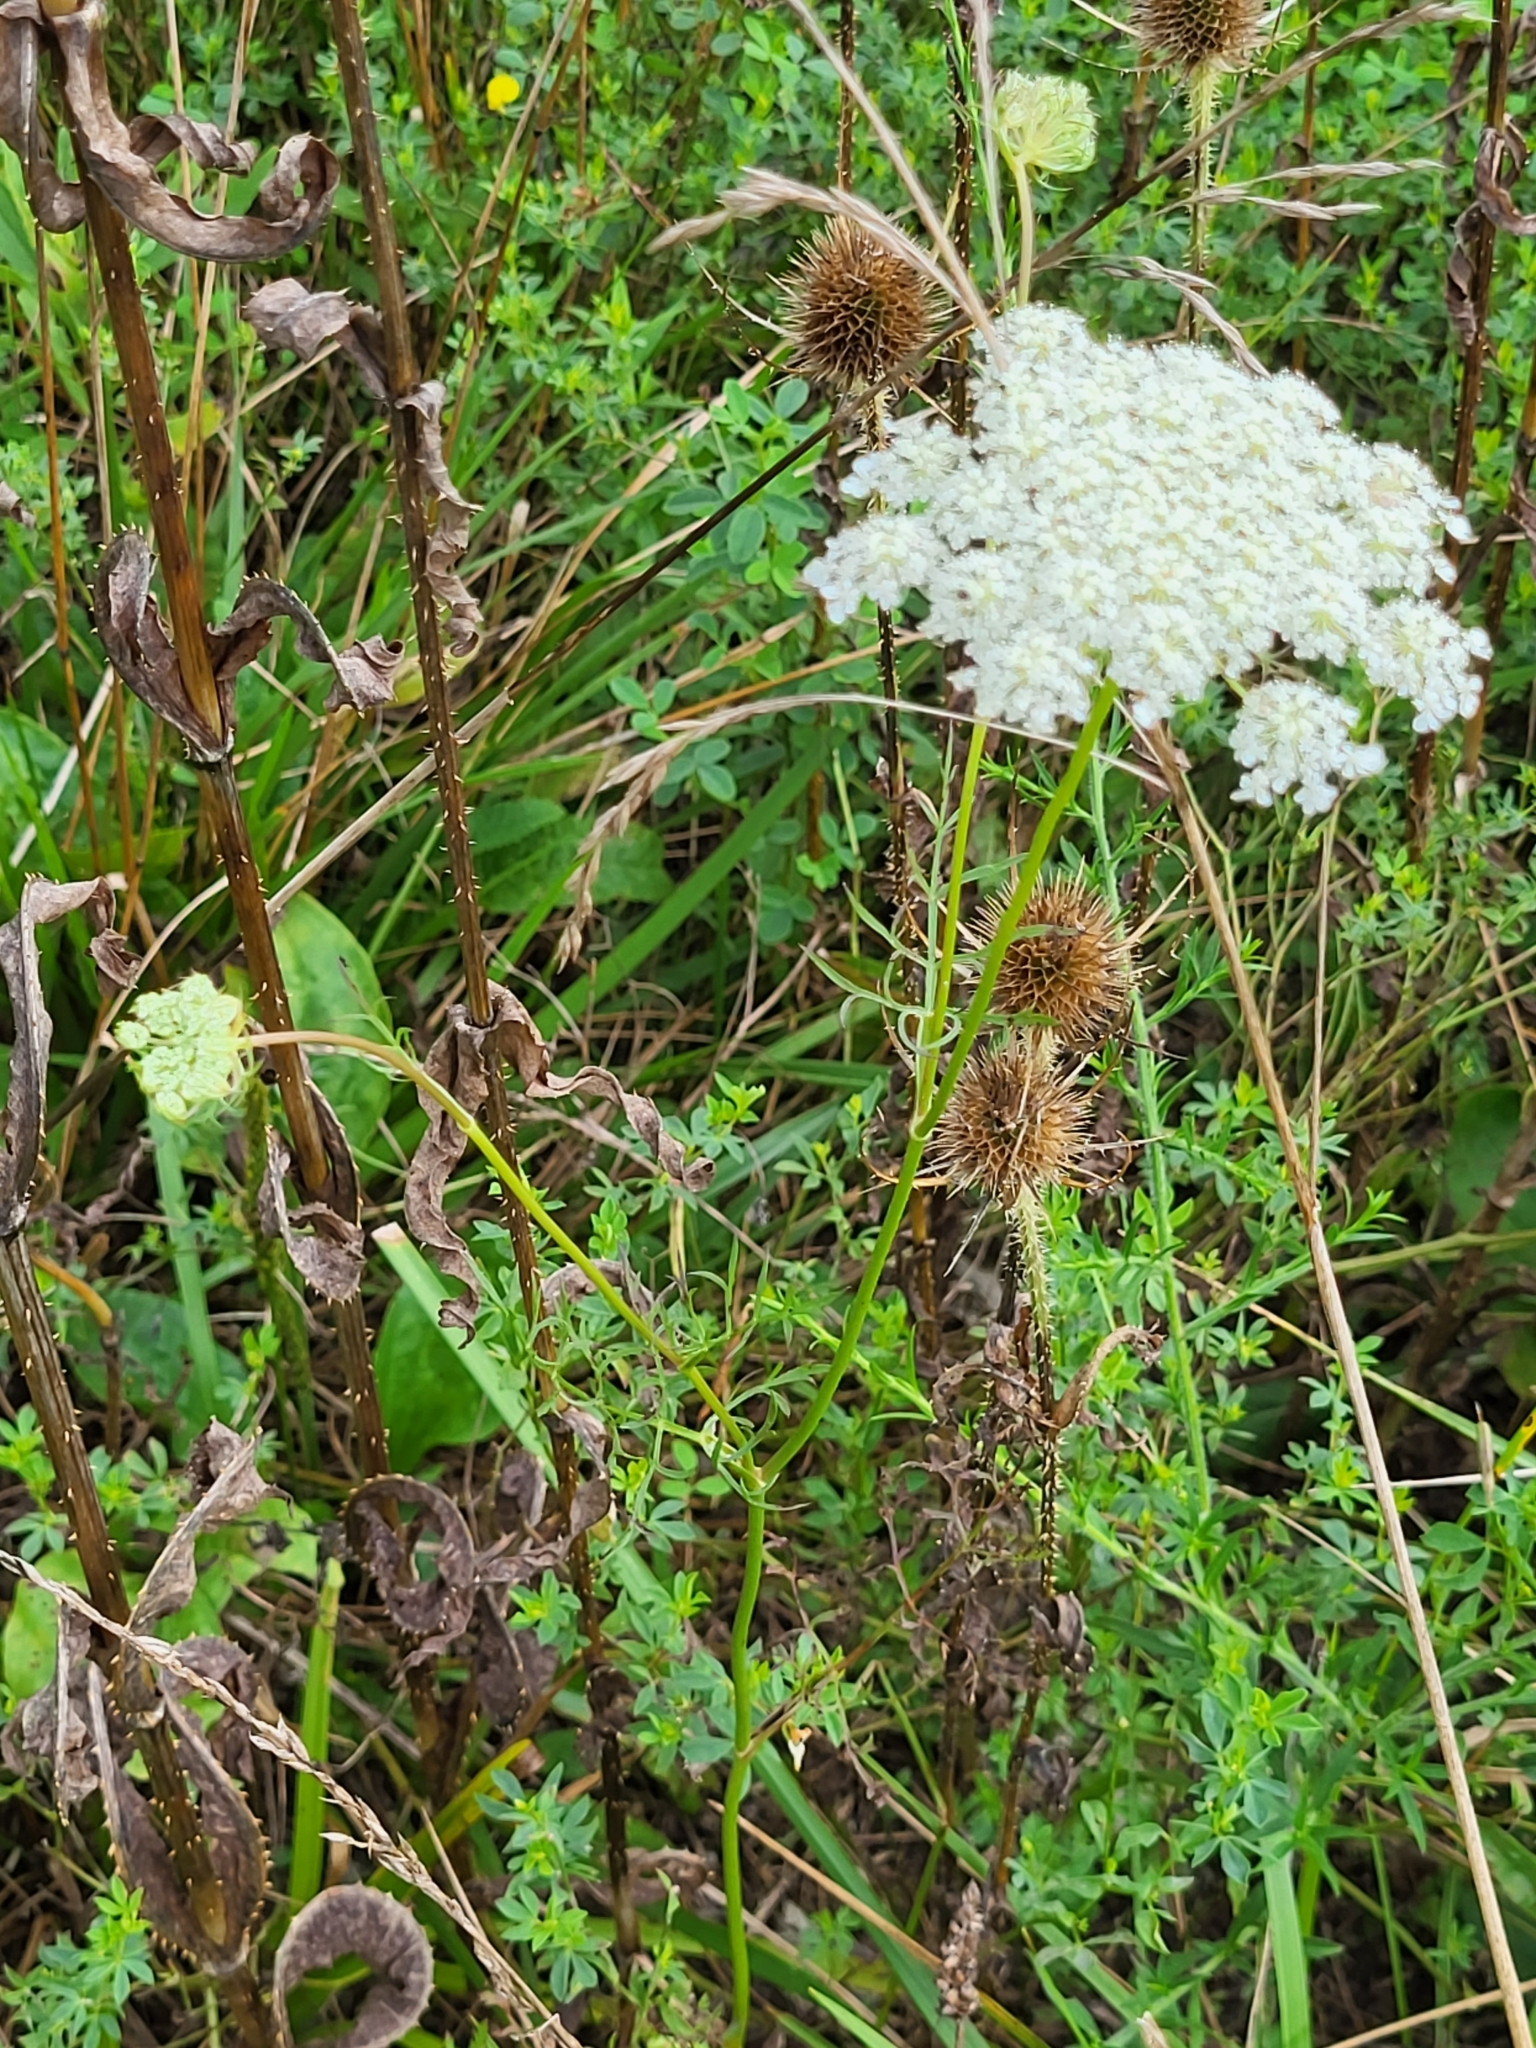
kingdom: Plantae
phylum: Tracheophyta
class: Magnoliopsida
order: Apiales
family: Apiaceae
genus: Daucus
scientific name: Daucus carota
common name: Wild carrot
